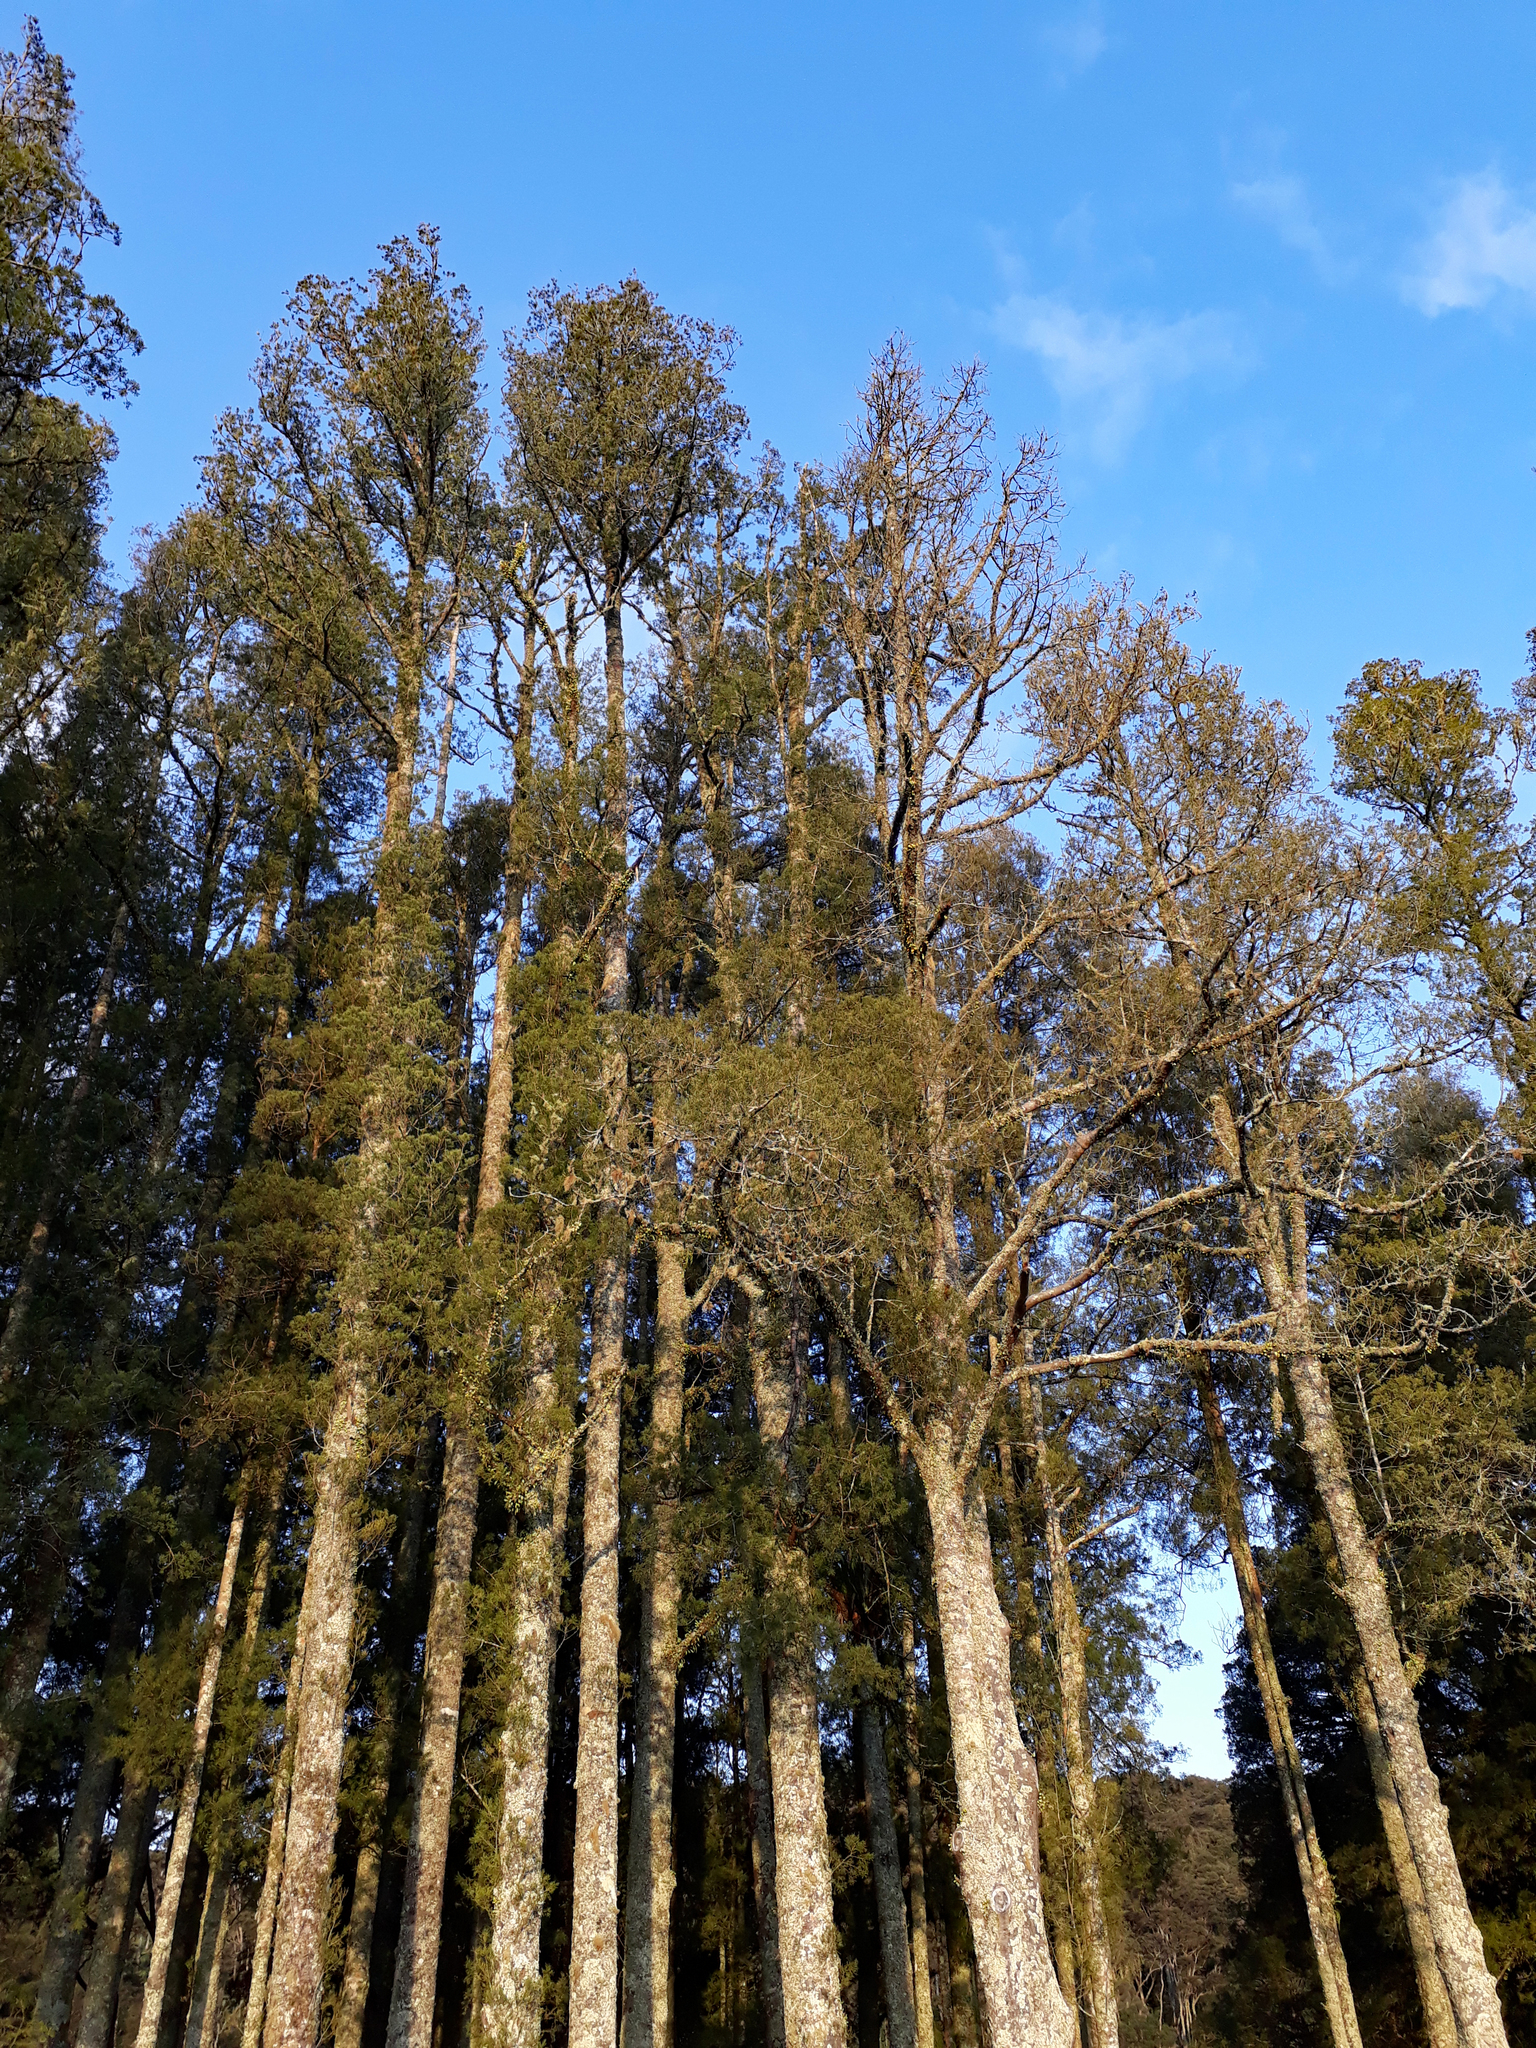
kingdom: Plantae
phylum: Tracheophyta
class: Pinopsida
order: Pinales
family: Podocarpaceae
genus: Dacrycarpus
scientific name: Dacrycarpus dacrydioides
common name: White pine
